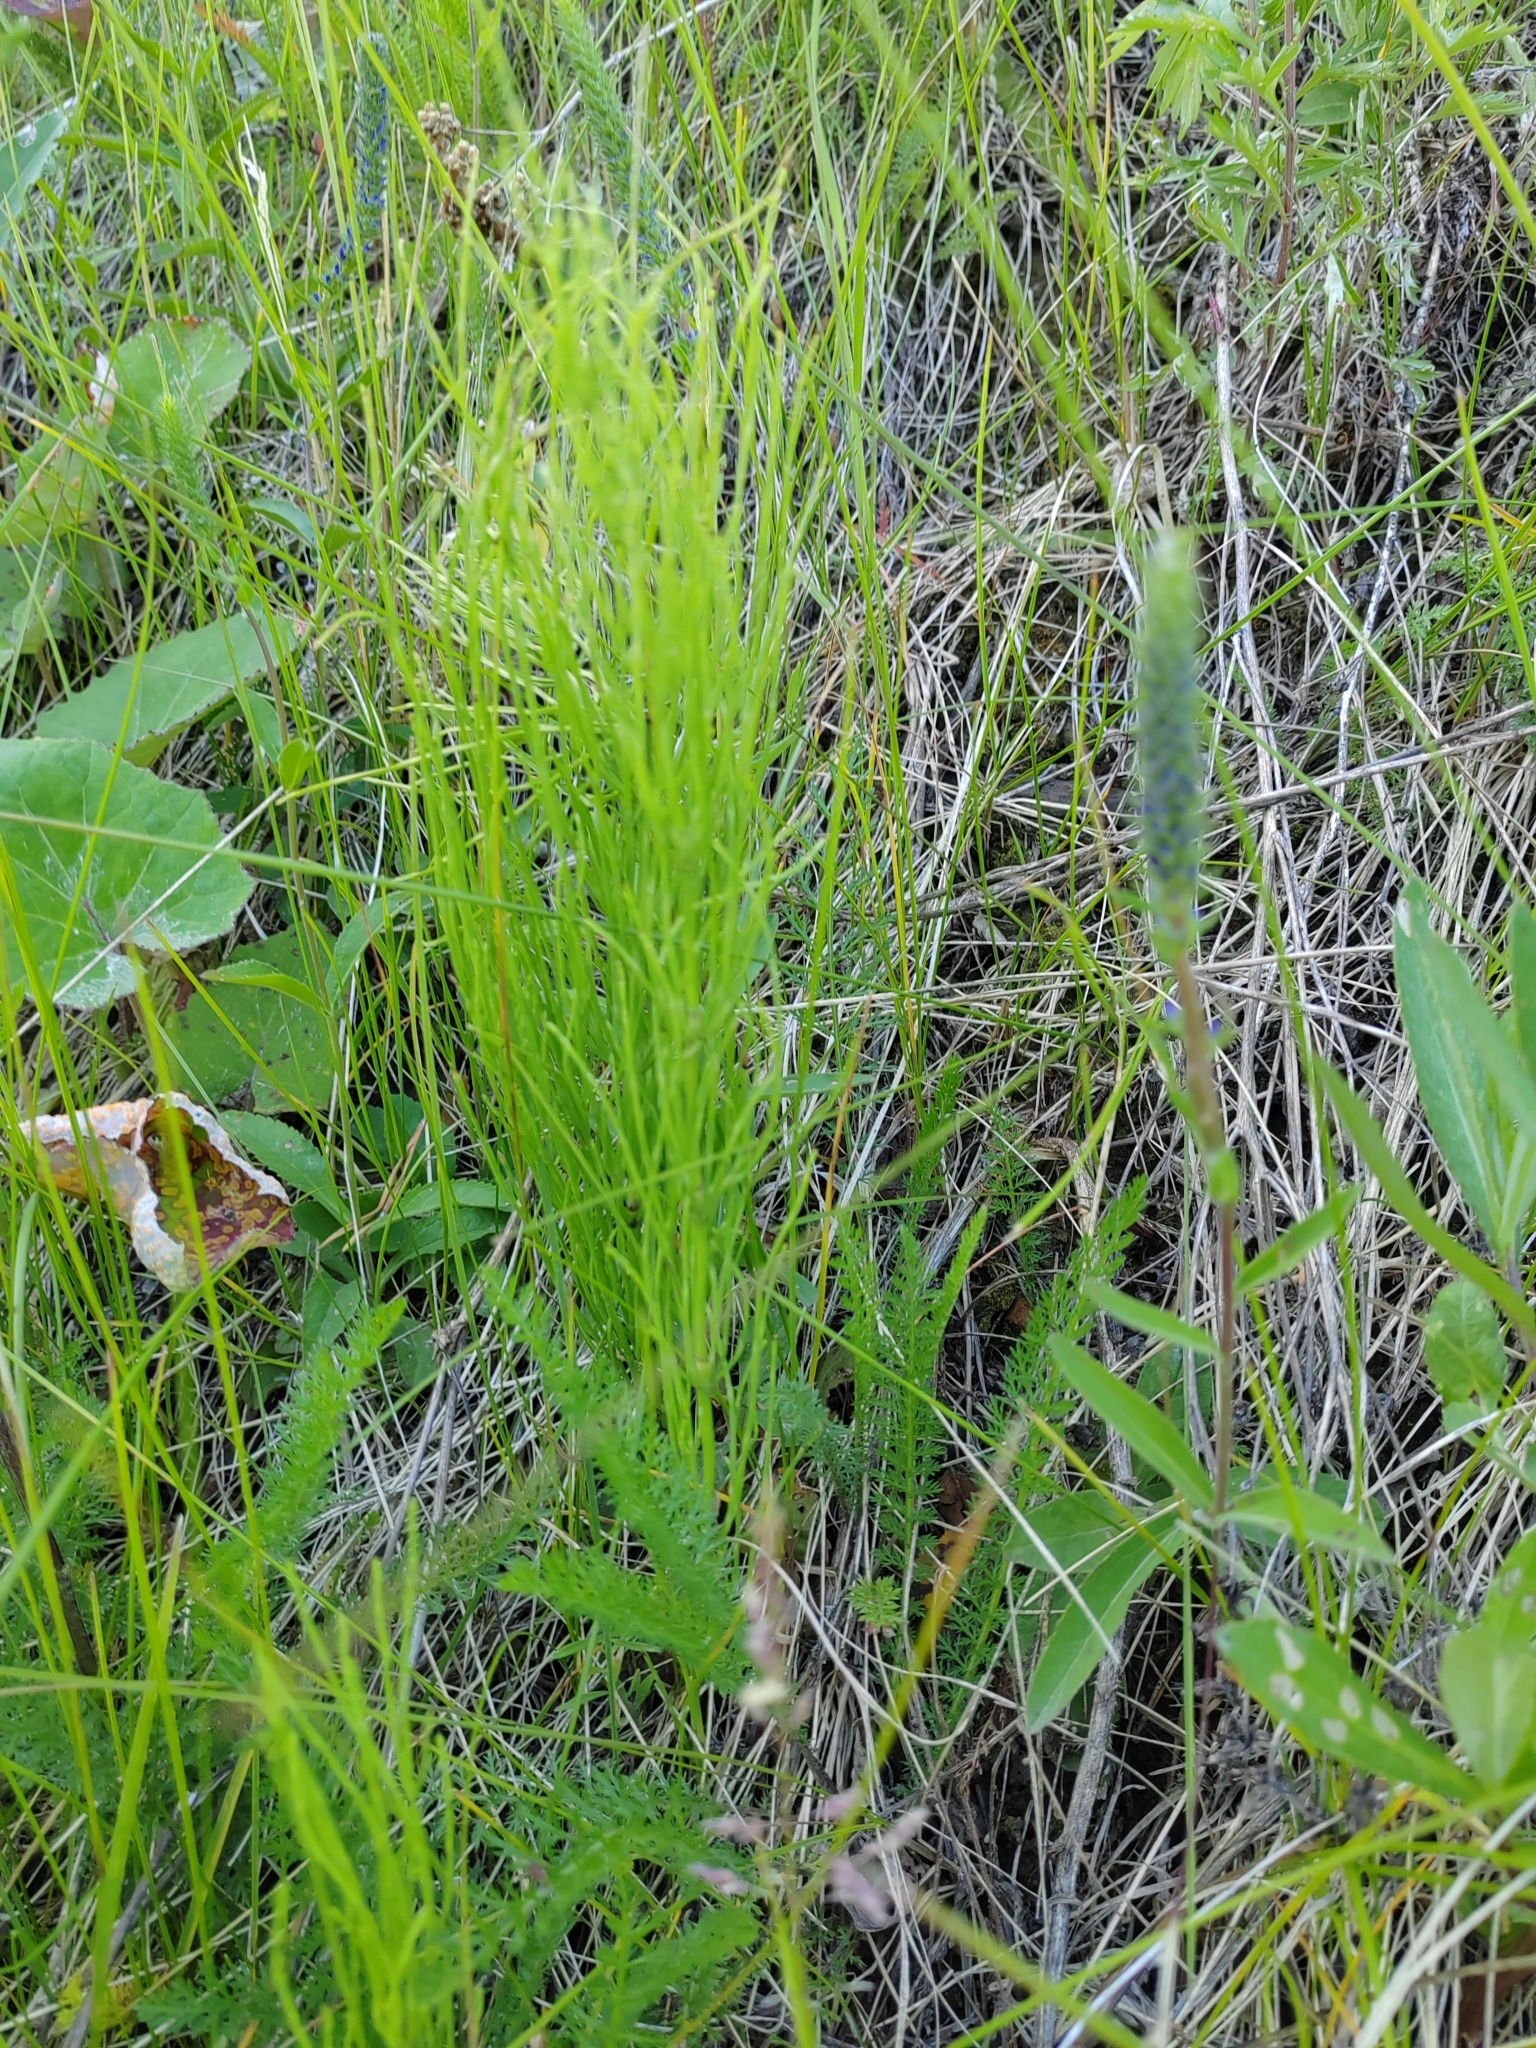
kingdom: Plantae
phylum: Tracheophyta
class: Polypodiopsida
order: Equisetales
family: Equisetaceae
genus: Equisetum
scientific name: Equisetum arvense
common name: Field horsetail
